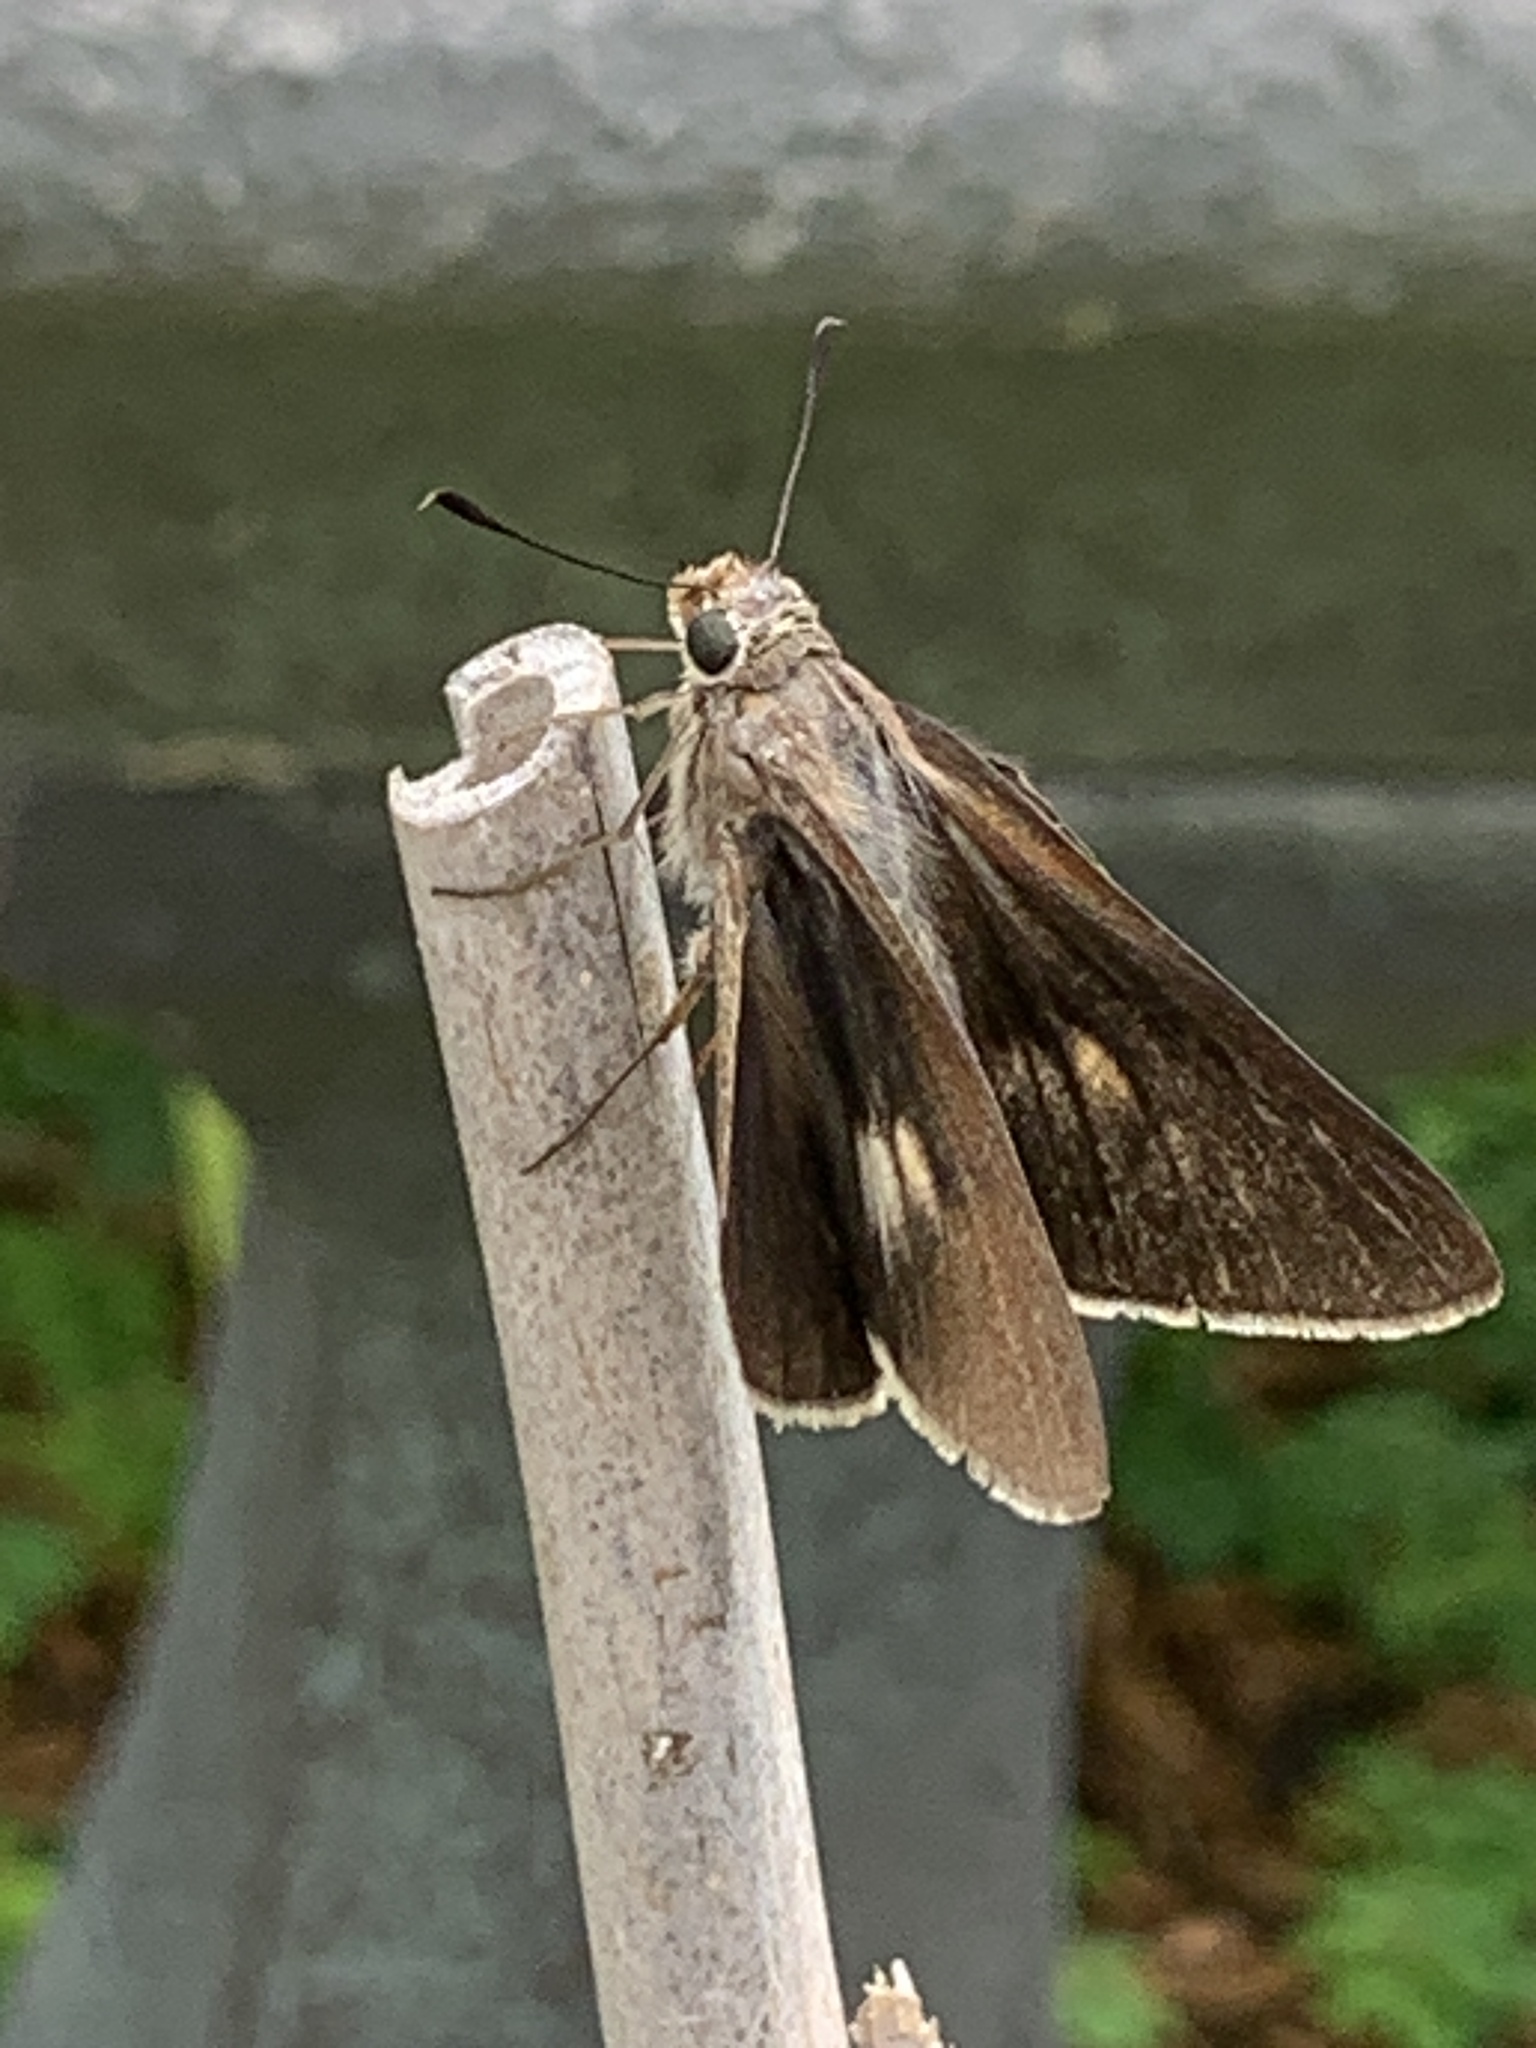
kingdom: Animalia
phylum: Arthropoda
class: Insecta
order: Lepidoptera
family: Hesperiidae
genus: Asbolis
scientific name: Asbolis capucinus
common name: Monk skipper
